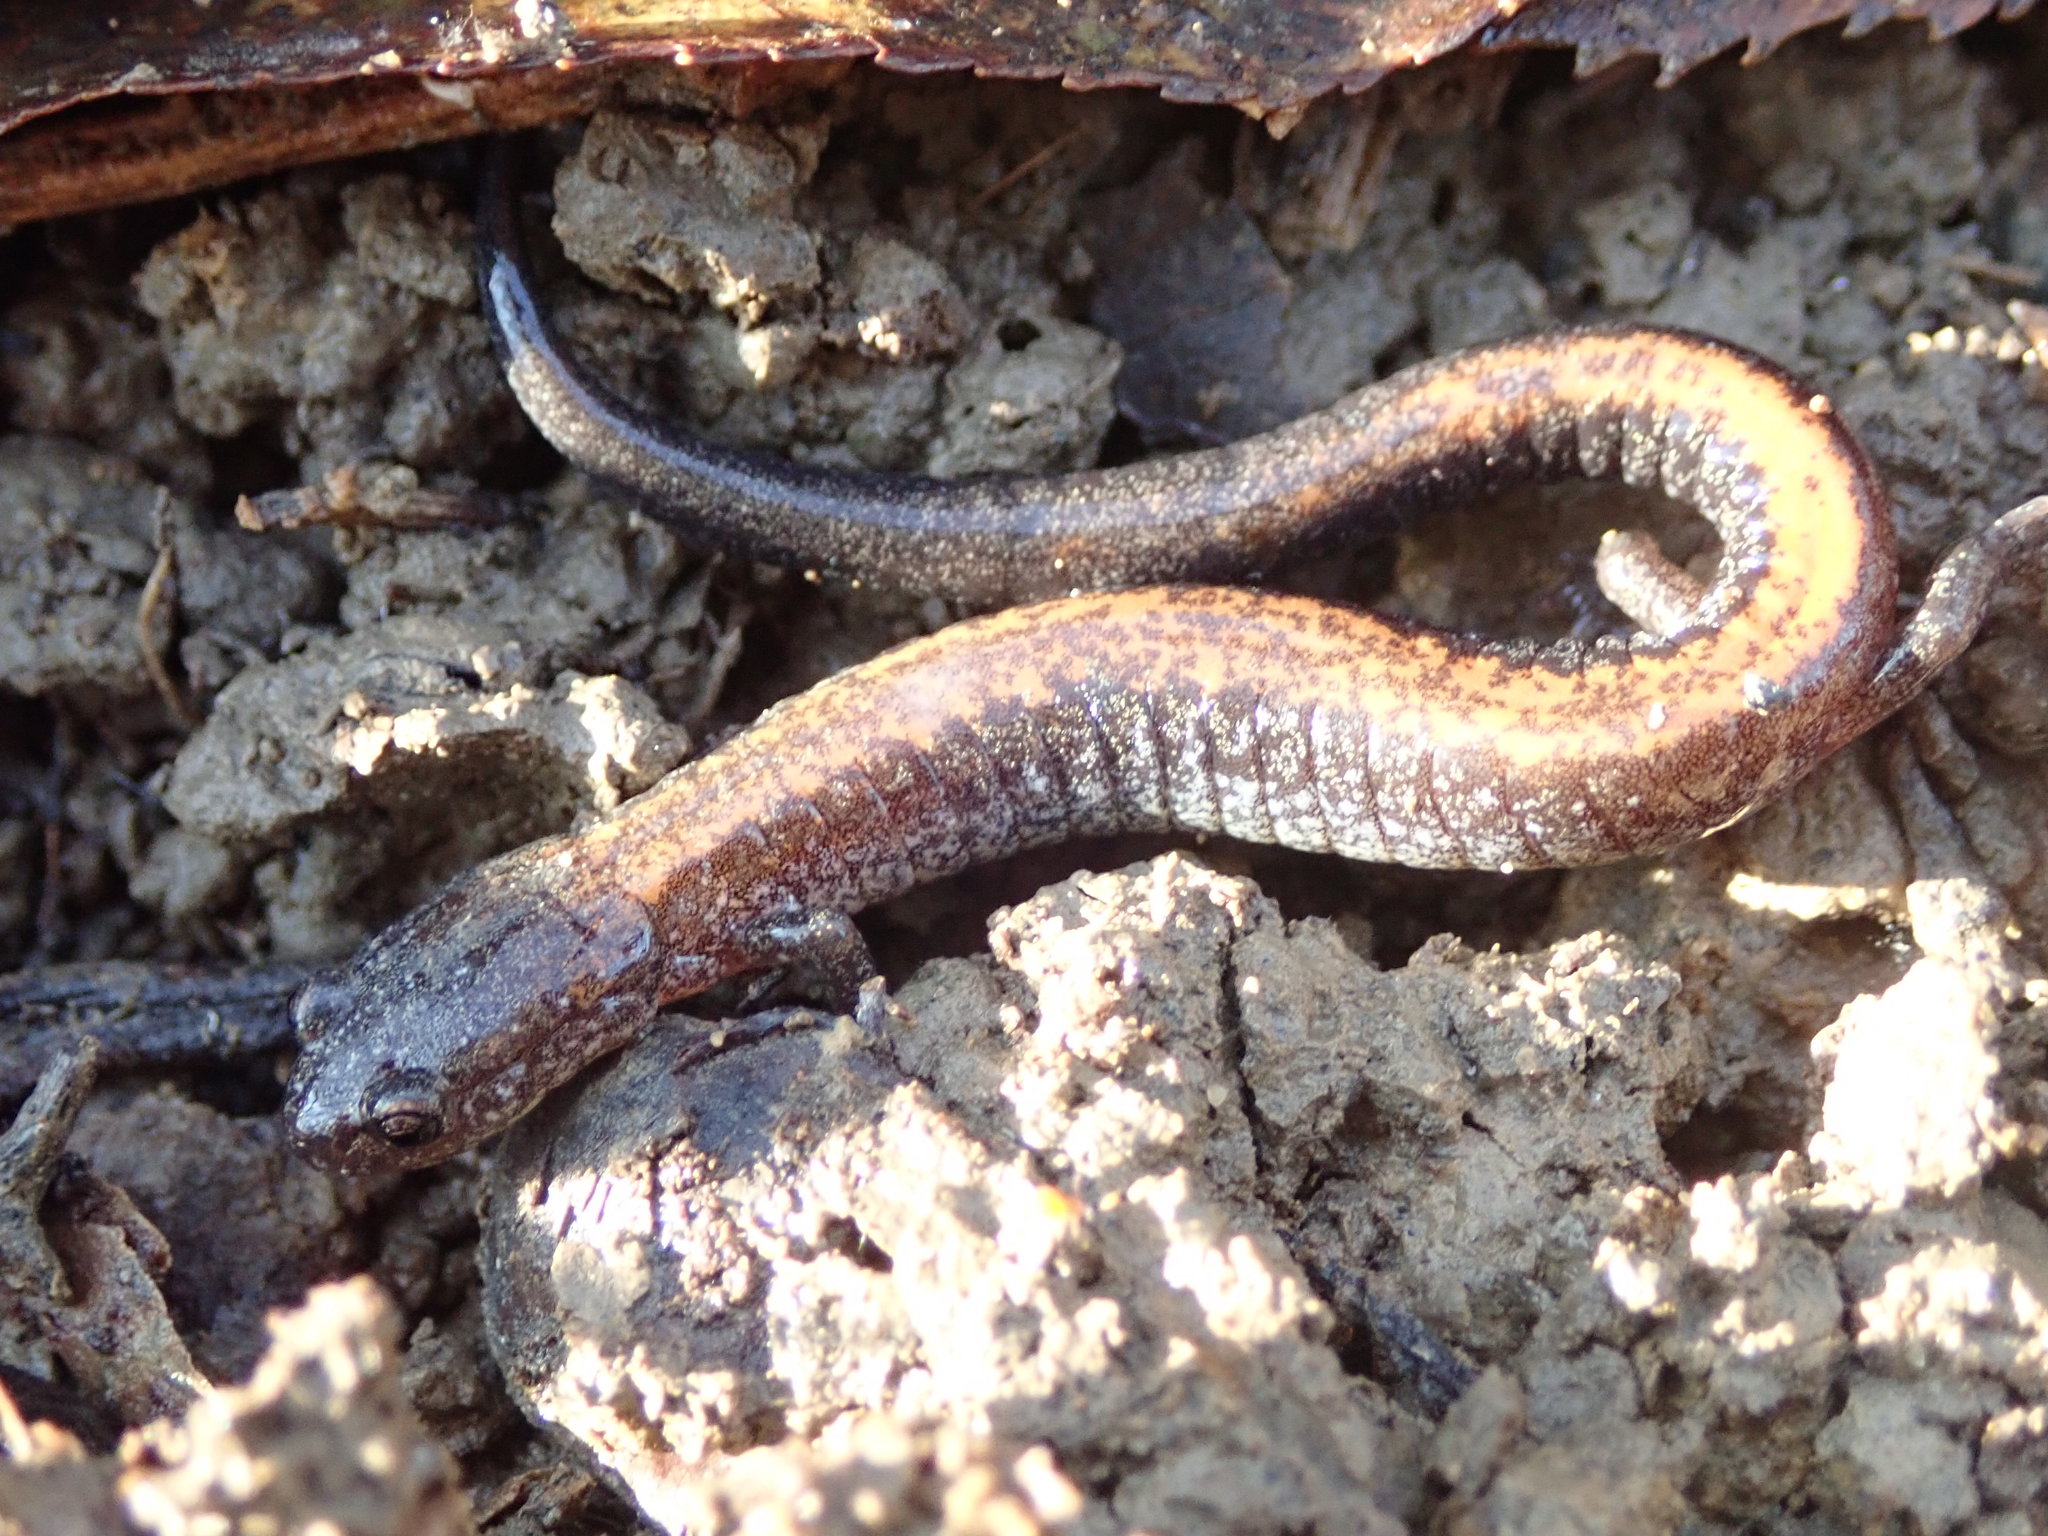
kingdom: Animalia
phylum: Chordata
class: Amphibia
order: Caudata
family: Plethodontidae
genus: Plethodon
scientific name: Plethodon cinereus
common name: Redback salamander
